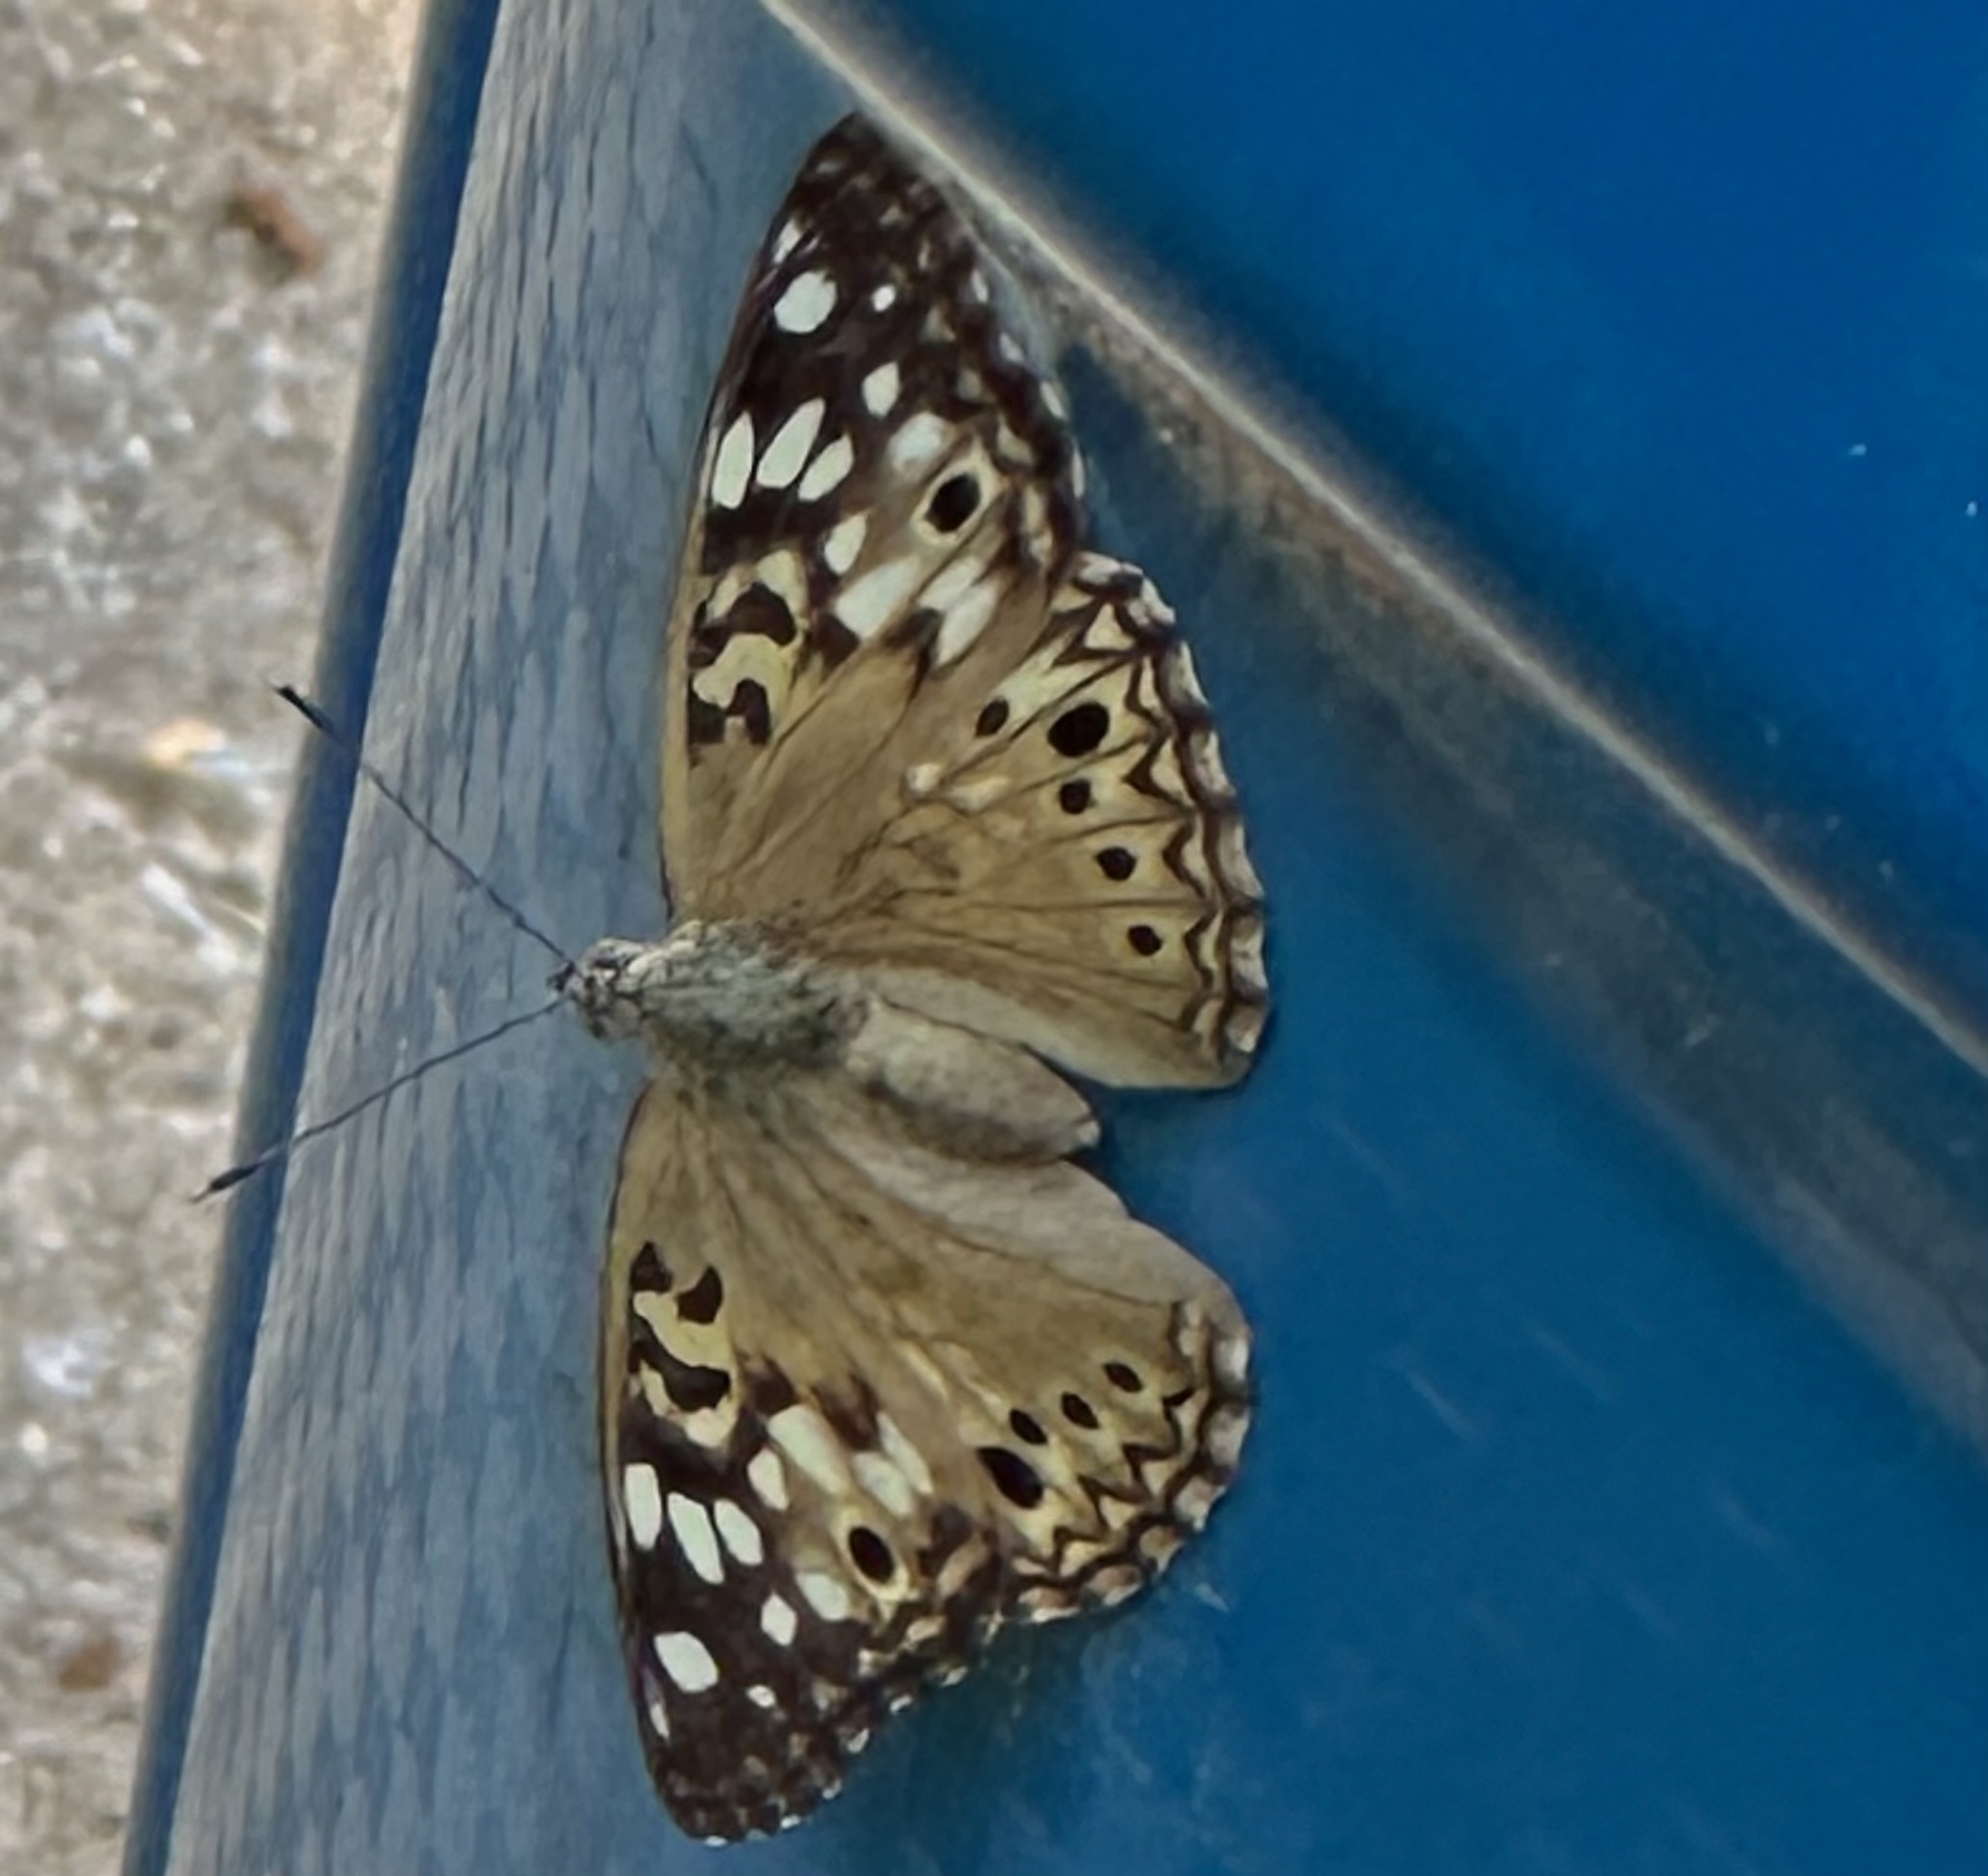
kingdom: Animalia
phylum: Arthropoda
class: Insecta
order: Lepidoptera
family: Nymphalidae
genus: Asterocampa
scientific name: Asterocampa celtis
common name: Hackberry emperor
